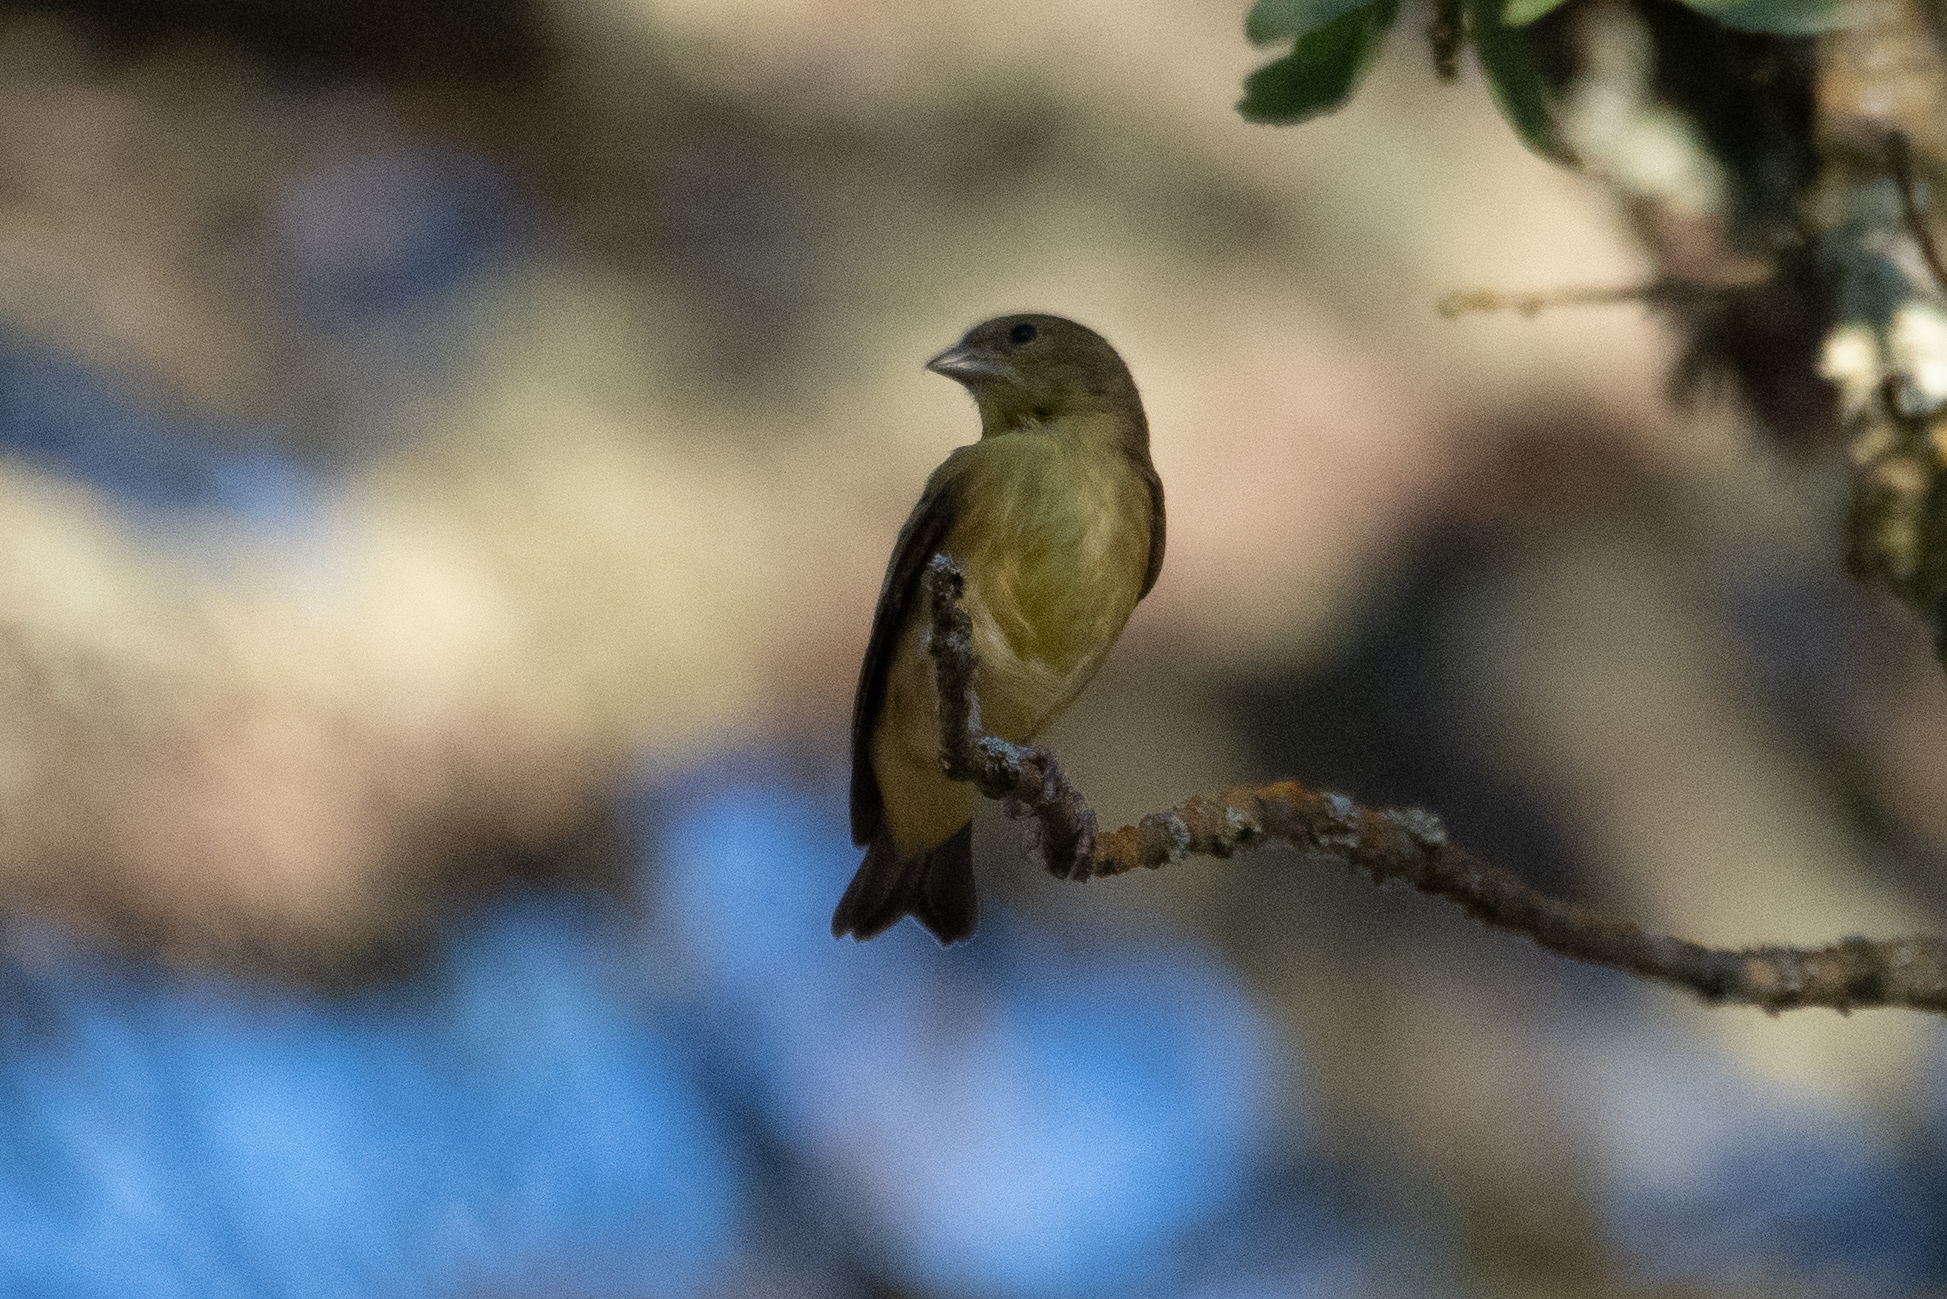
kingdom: Animalia
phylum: Chordata
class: Aves
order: Passeriformes
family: Fringillidae
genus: Spinus
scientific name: Spinus psaltria
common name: Lesser goldfinch
